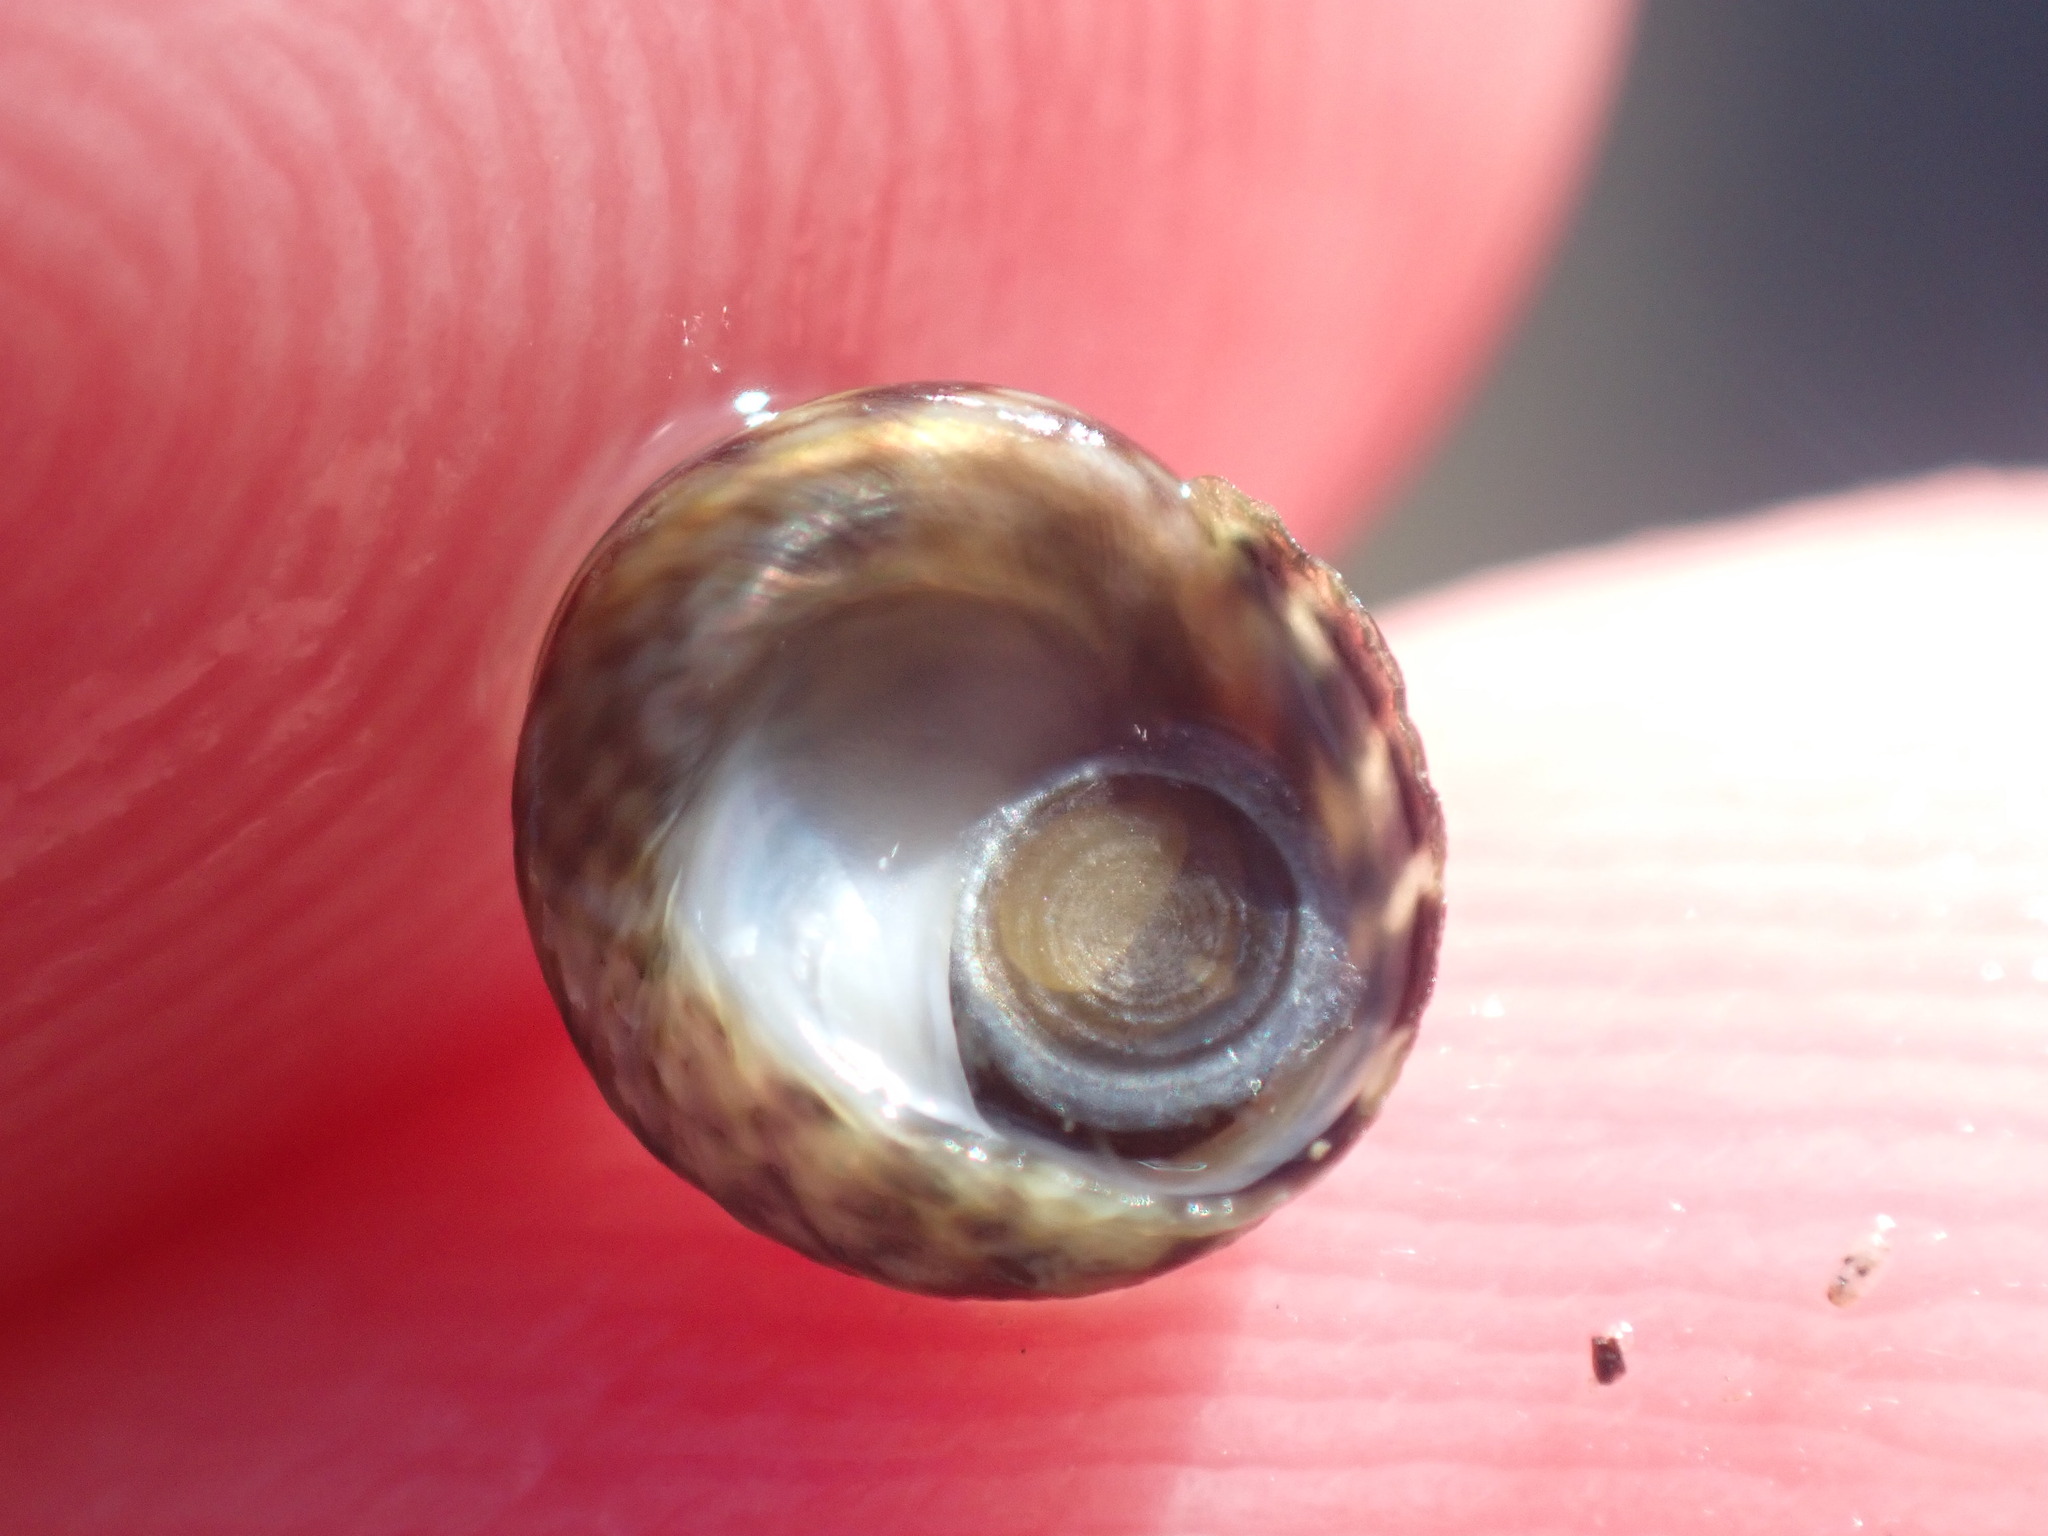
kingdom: Animalia
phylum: Mollusca
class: Gastropoda
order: Trochida
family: Trochidae
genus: Diloma
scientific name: Diloma coracinum
